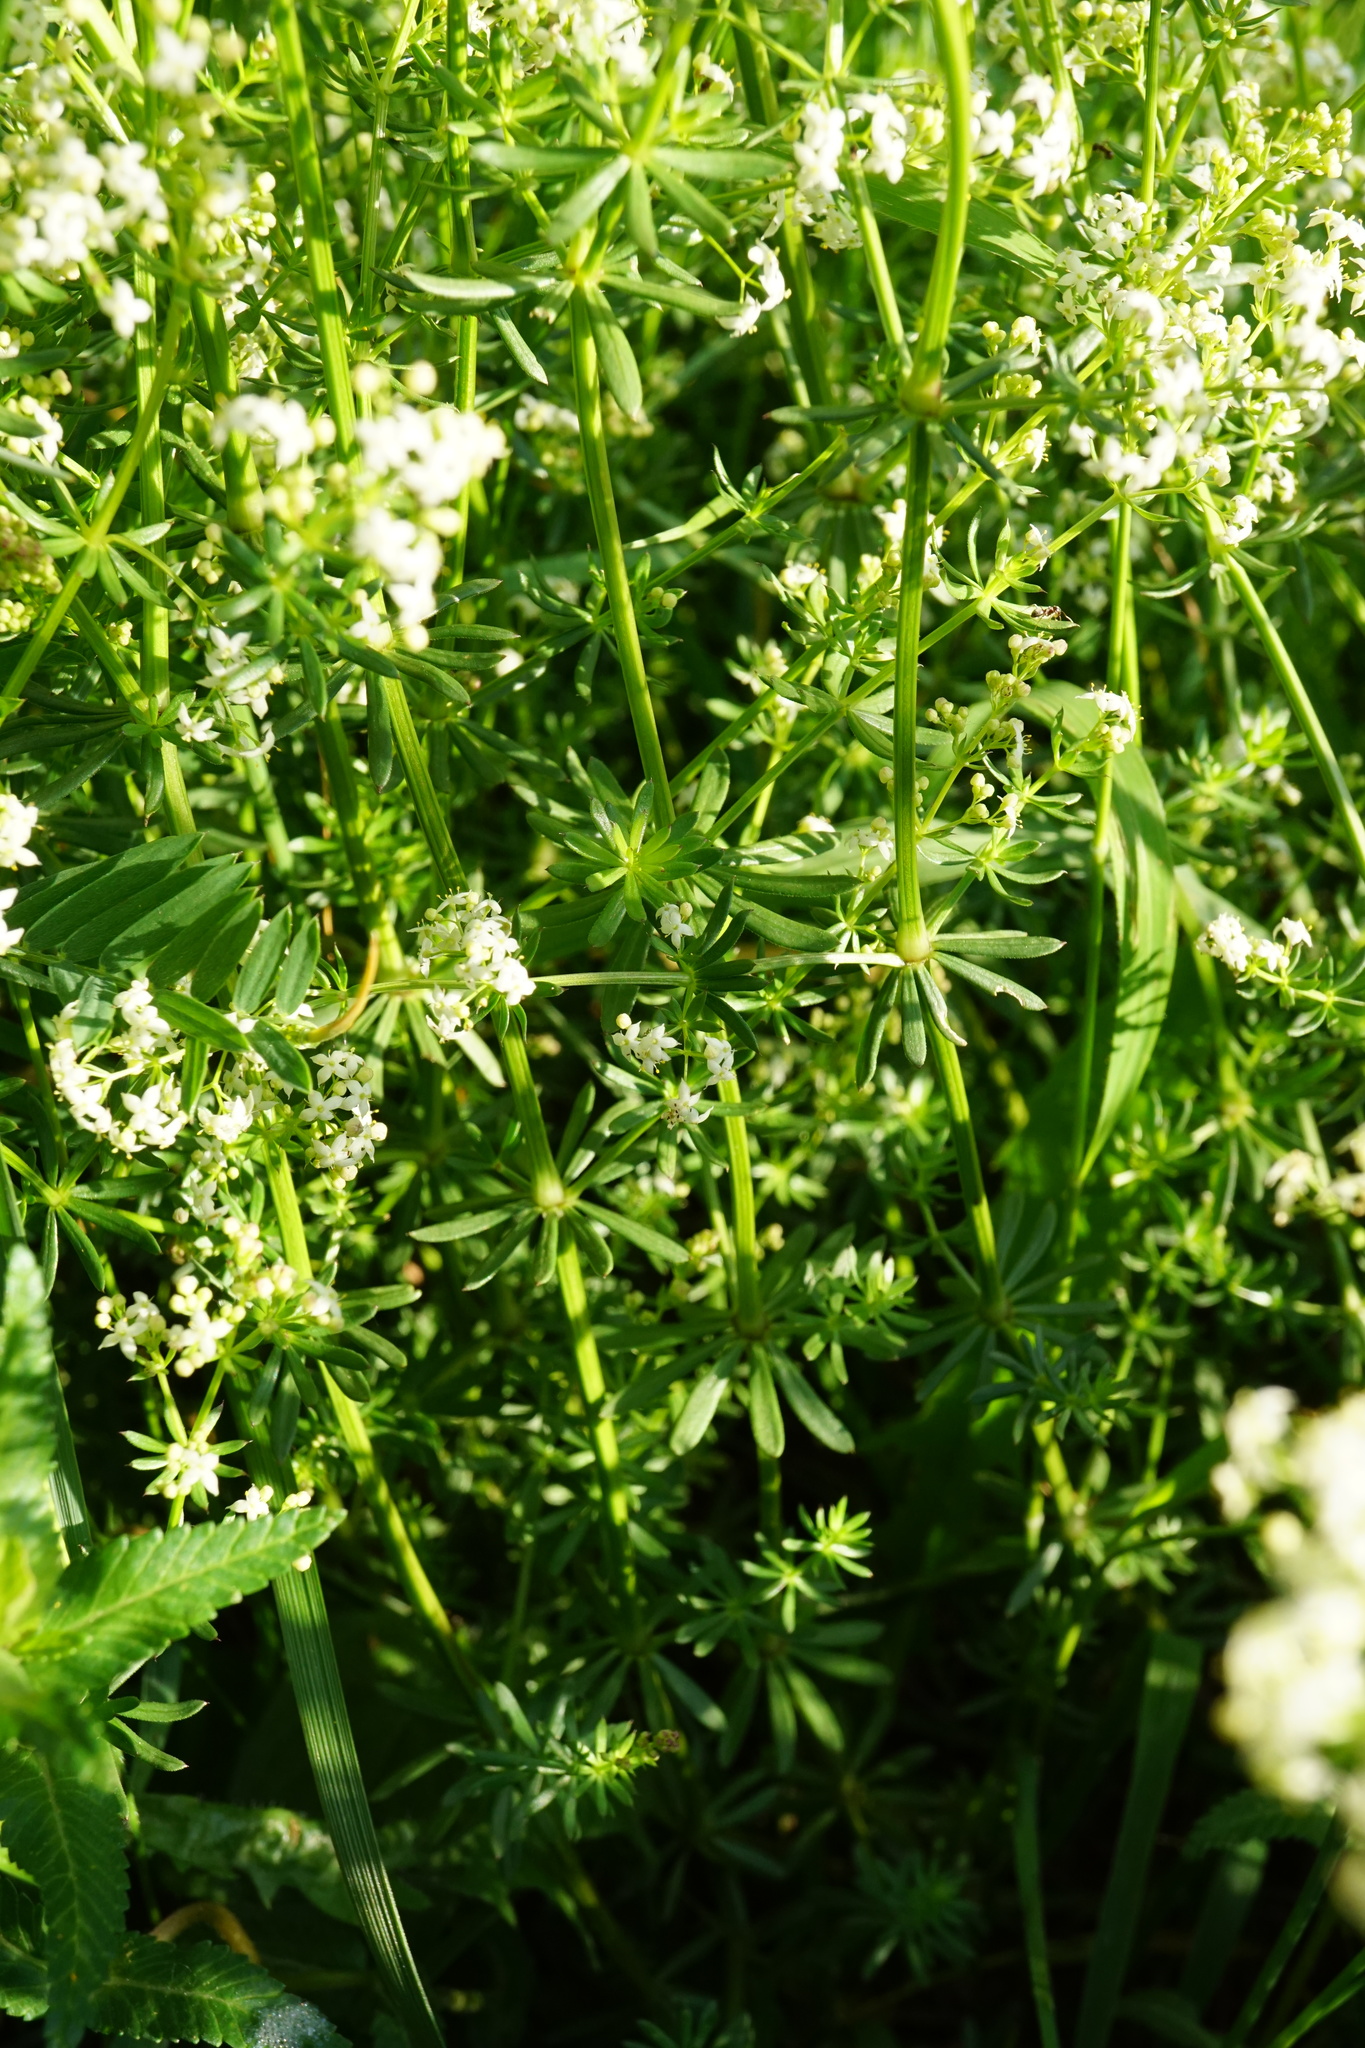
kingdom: Plantae
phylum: Tracheophyta
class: Magnoliopsida
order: Gentianales
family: Rubiaceae
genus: Galium
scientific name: Galium album
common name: White bedstraw
